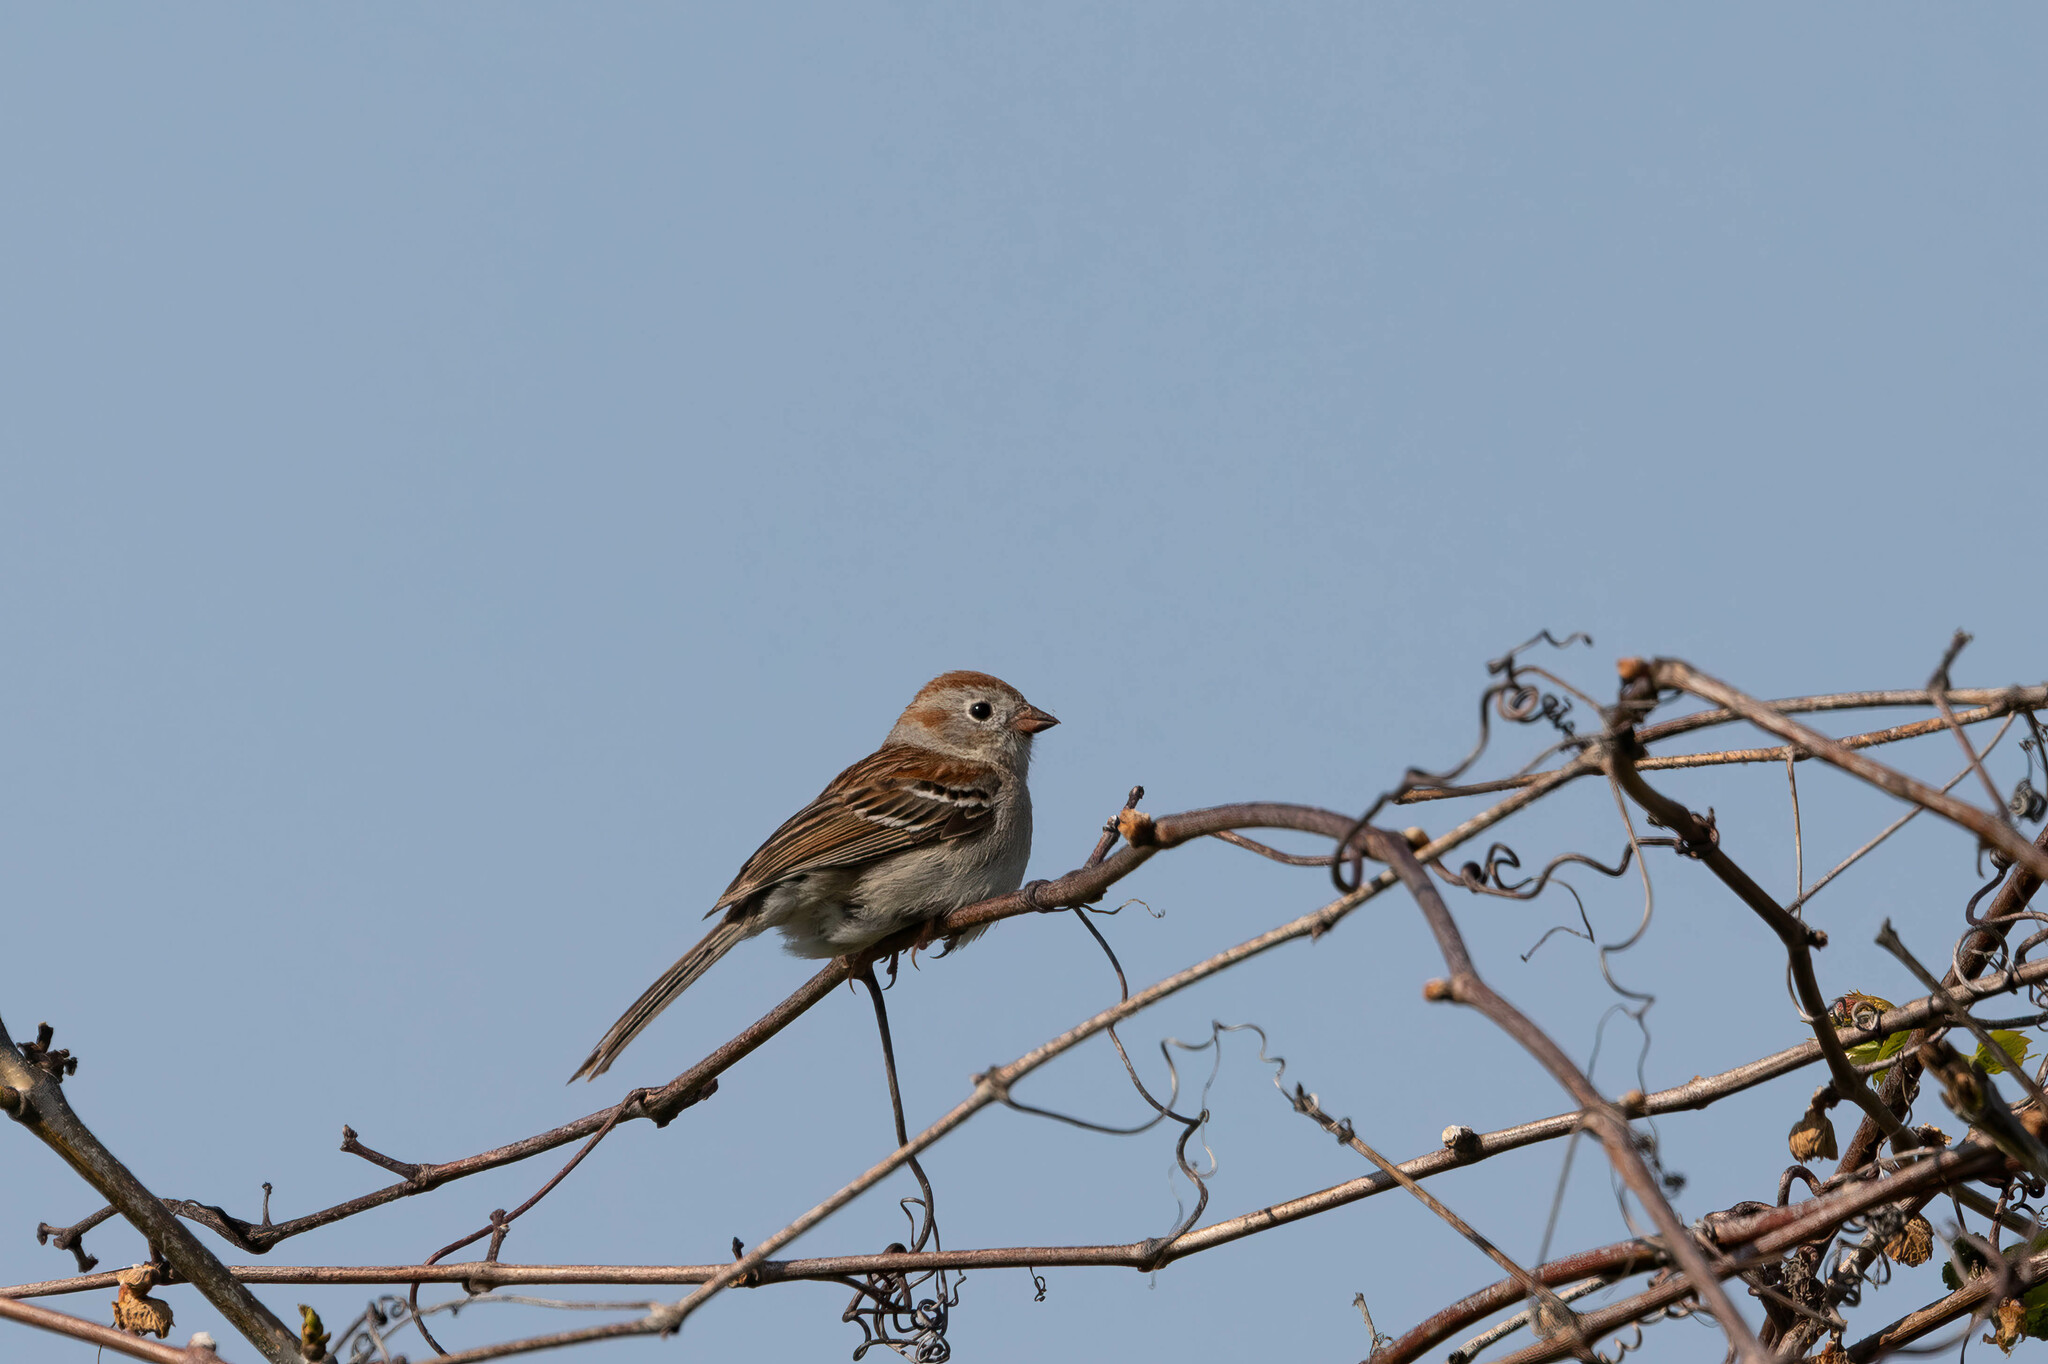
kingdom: Animalia
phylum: Chordata
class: Aves
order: Passeriformes
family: Passerellidae
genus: Spizella
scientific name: Spizella pusilla
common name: Field sparrow
